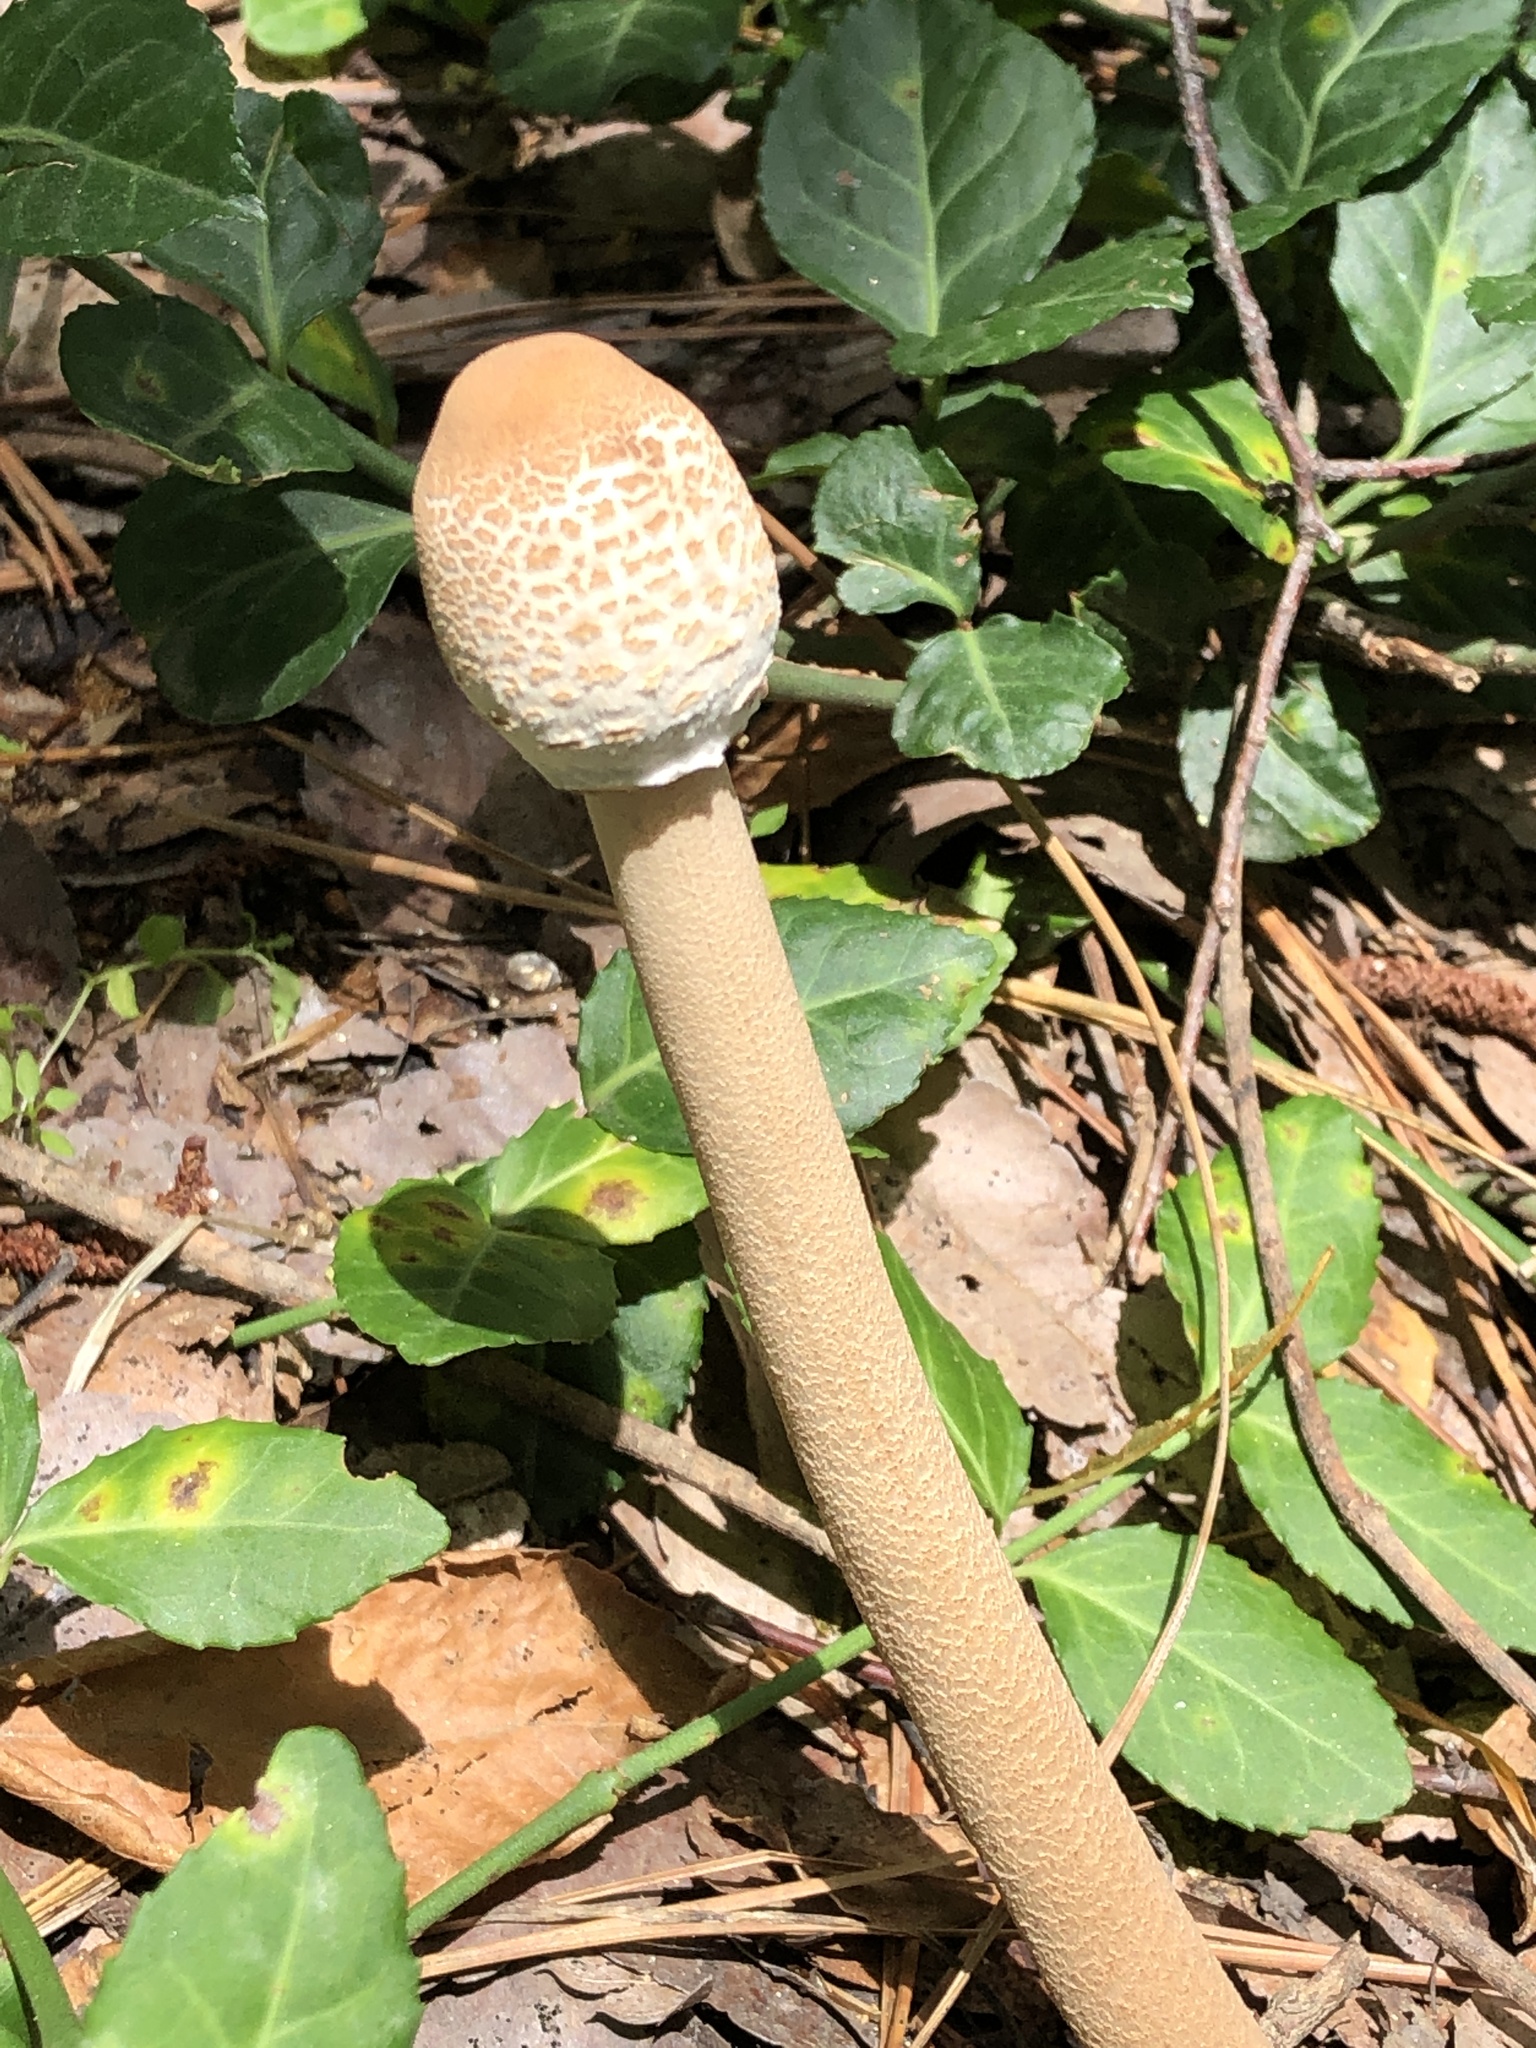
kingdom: Fungi
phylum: Basidiomycota
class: Agaricomycetes
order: Agaricales
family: Agaricaceae
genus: Macrolepiota
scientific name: Macrolepiota procera
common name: Parasol
